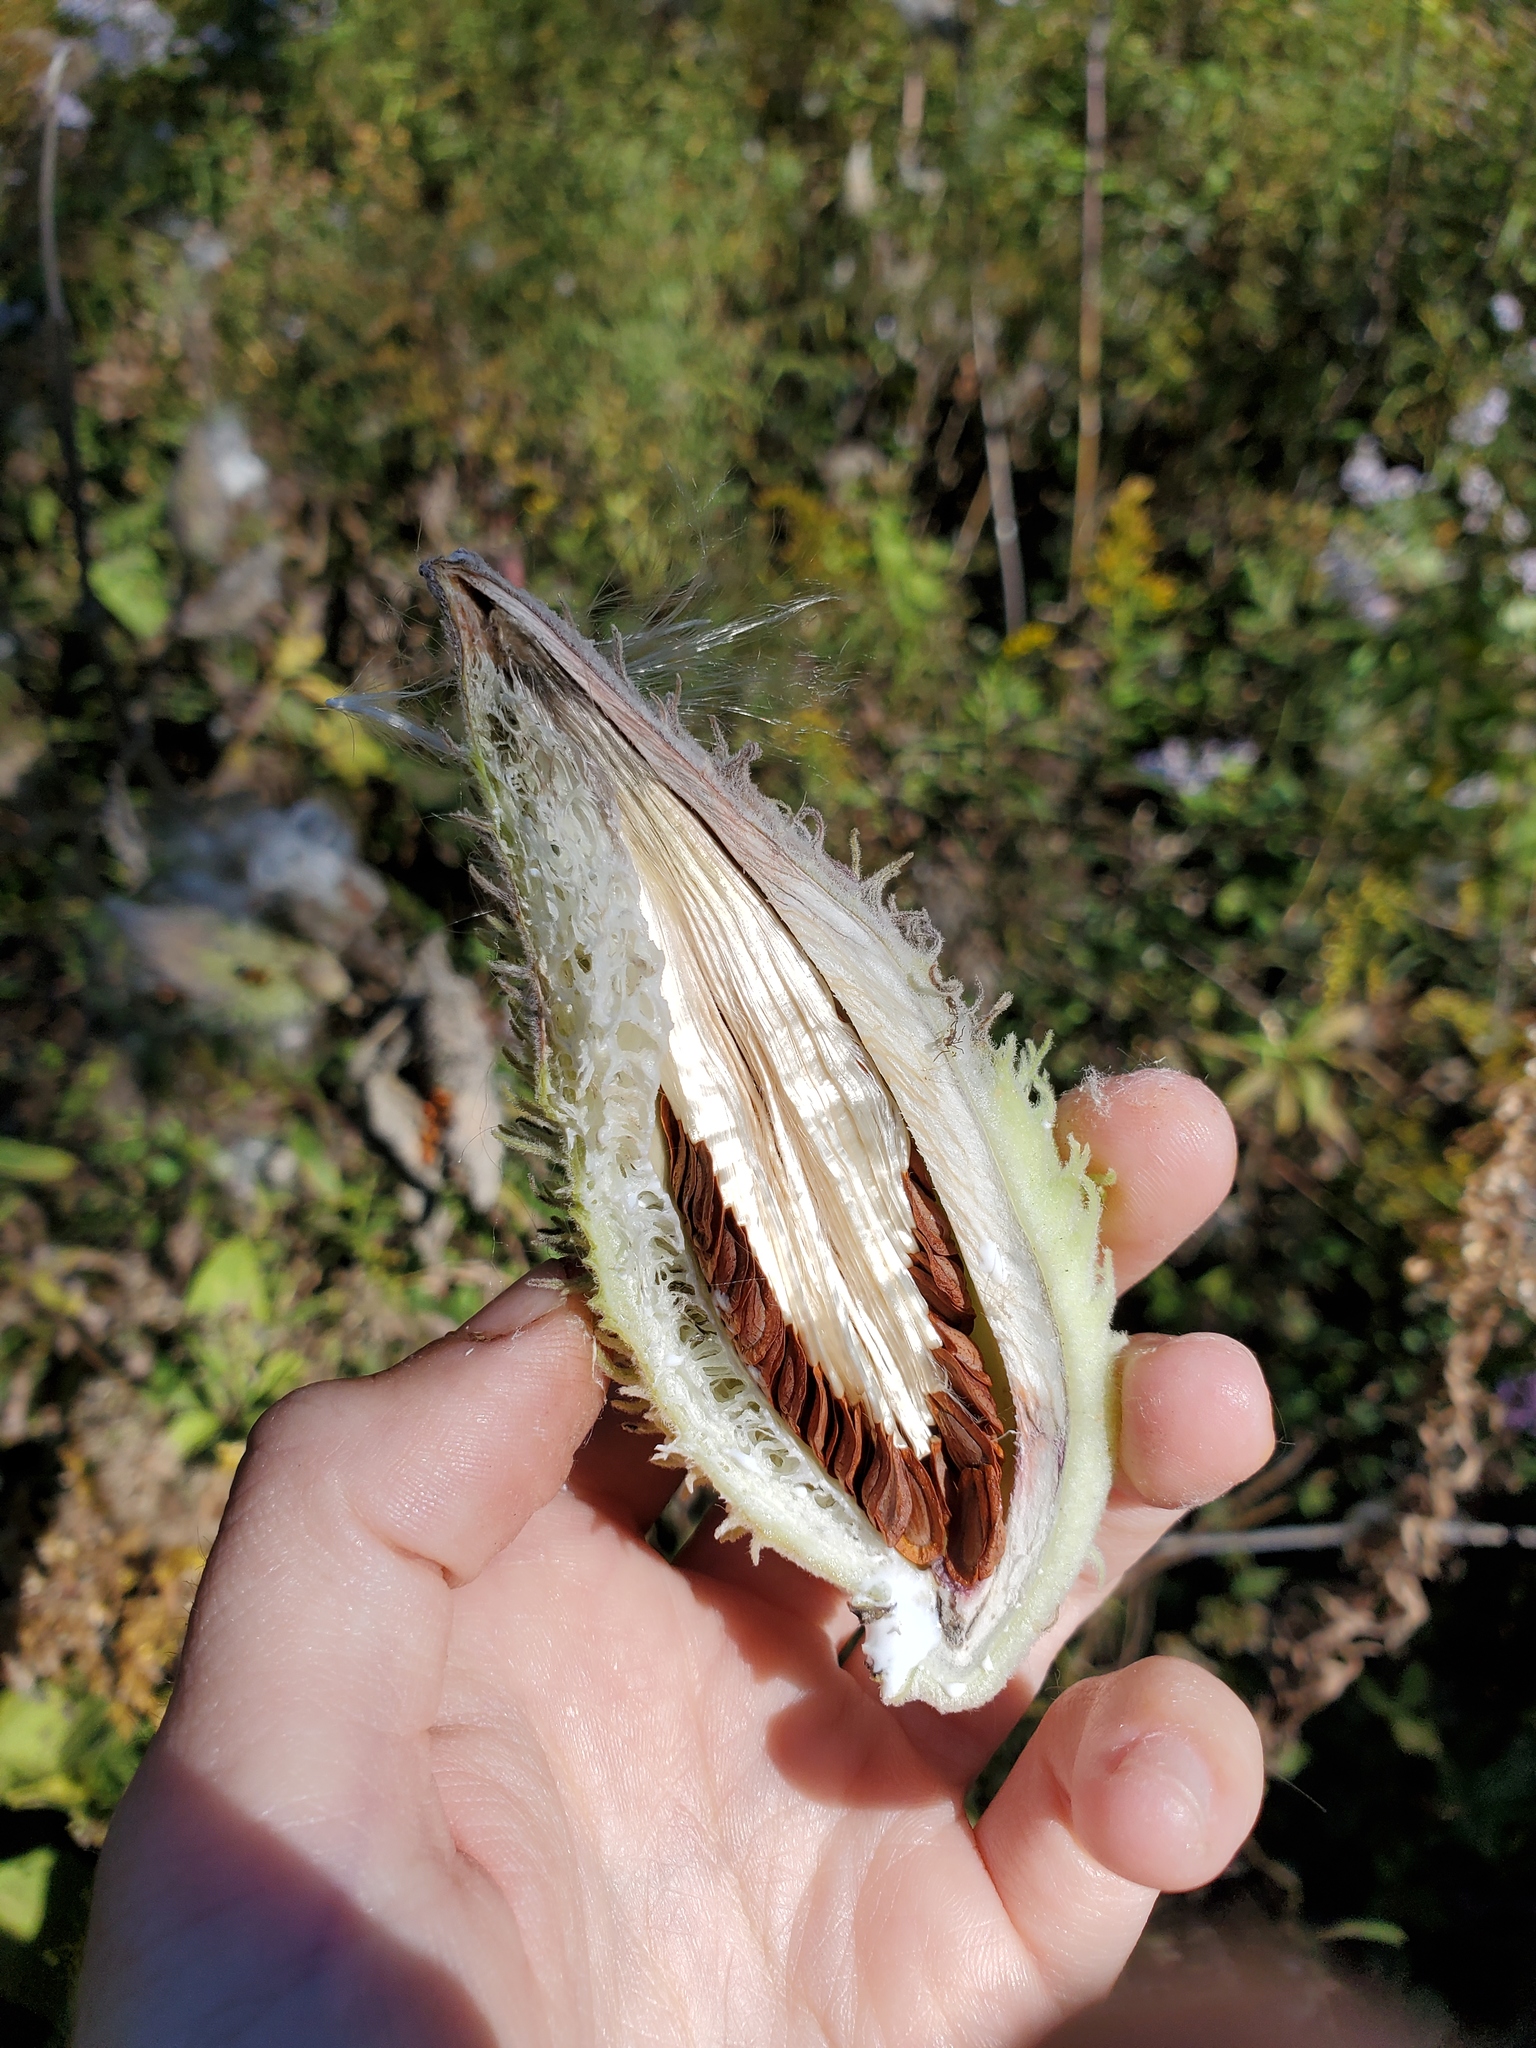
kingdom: Plantae
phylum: Tracheophyta
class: Magnoliopsida
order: Gentianales
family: Apocynaceae
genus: Asclepias
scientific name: Asclepias syriaca
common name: Common milkweed
